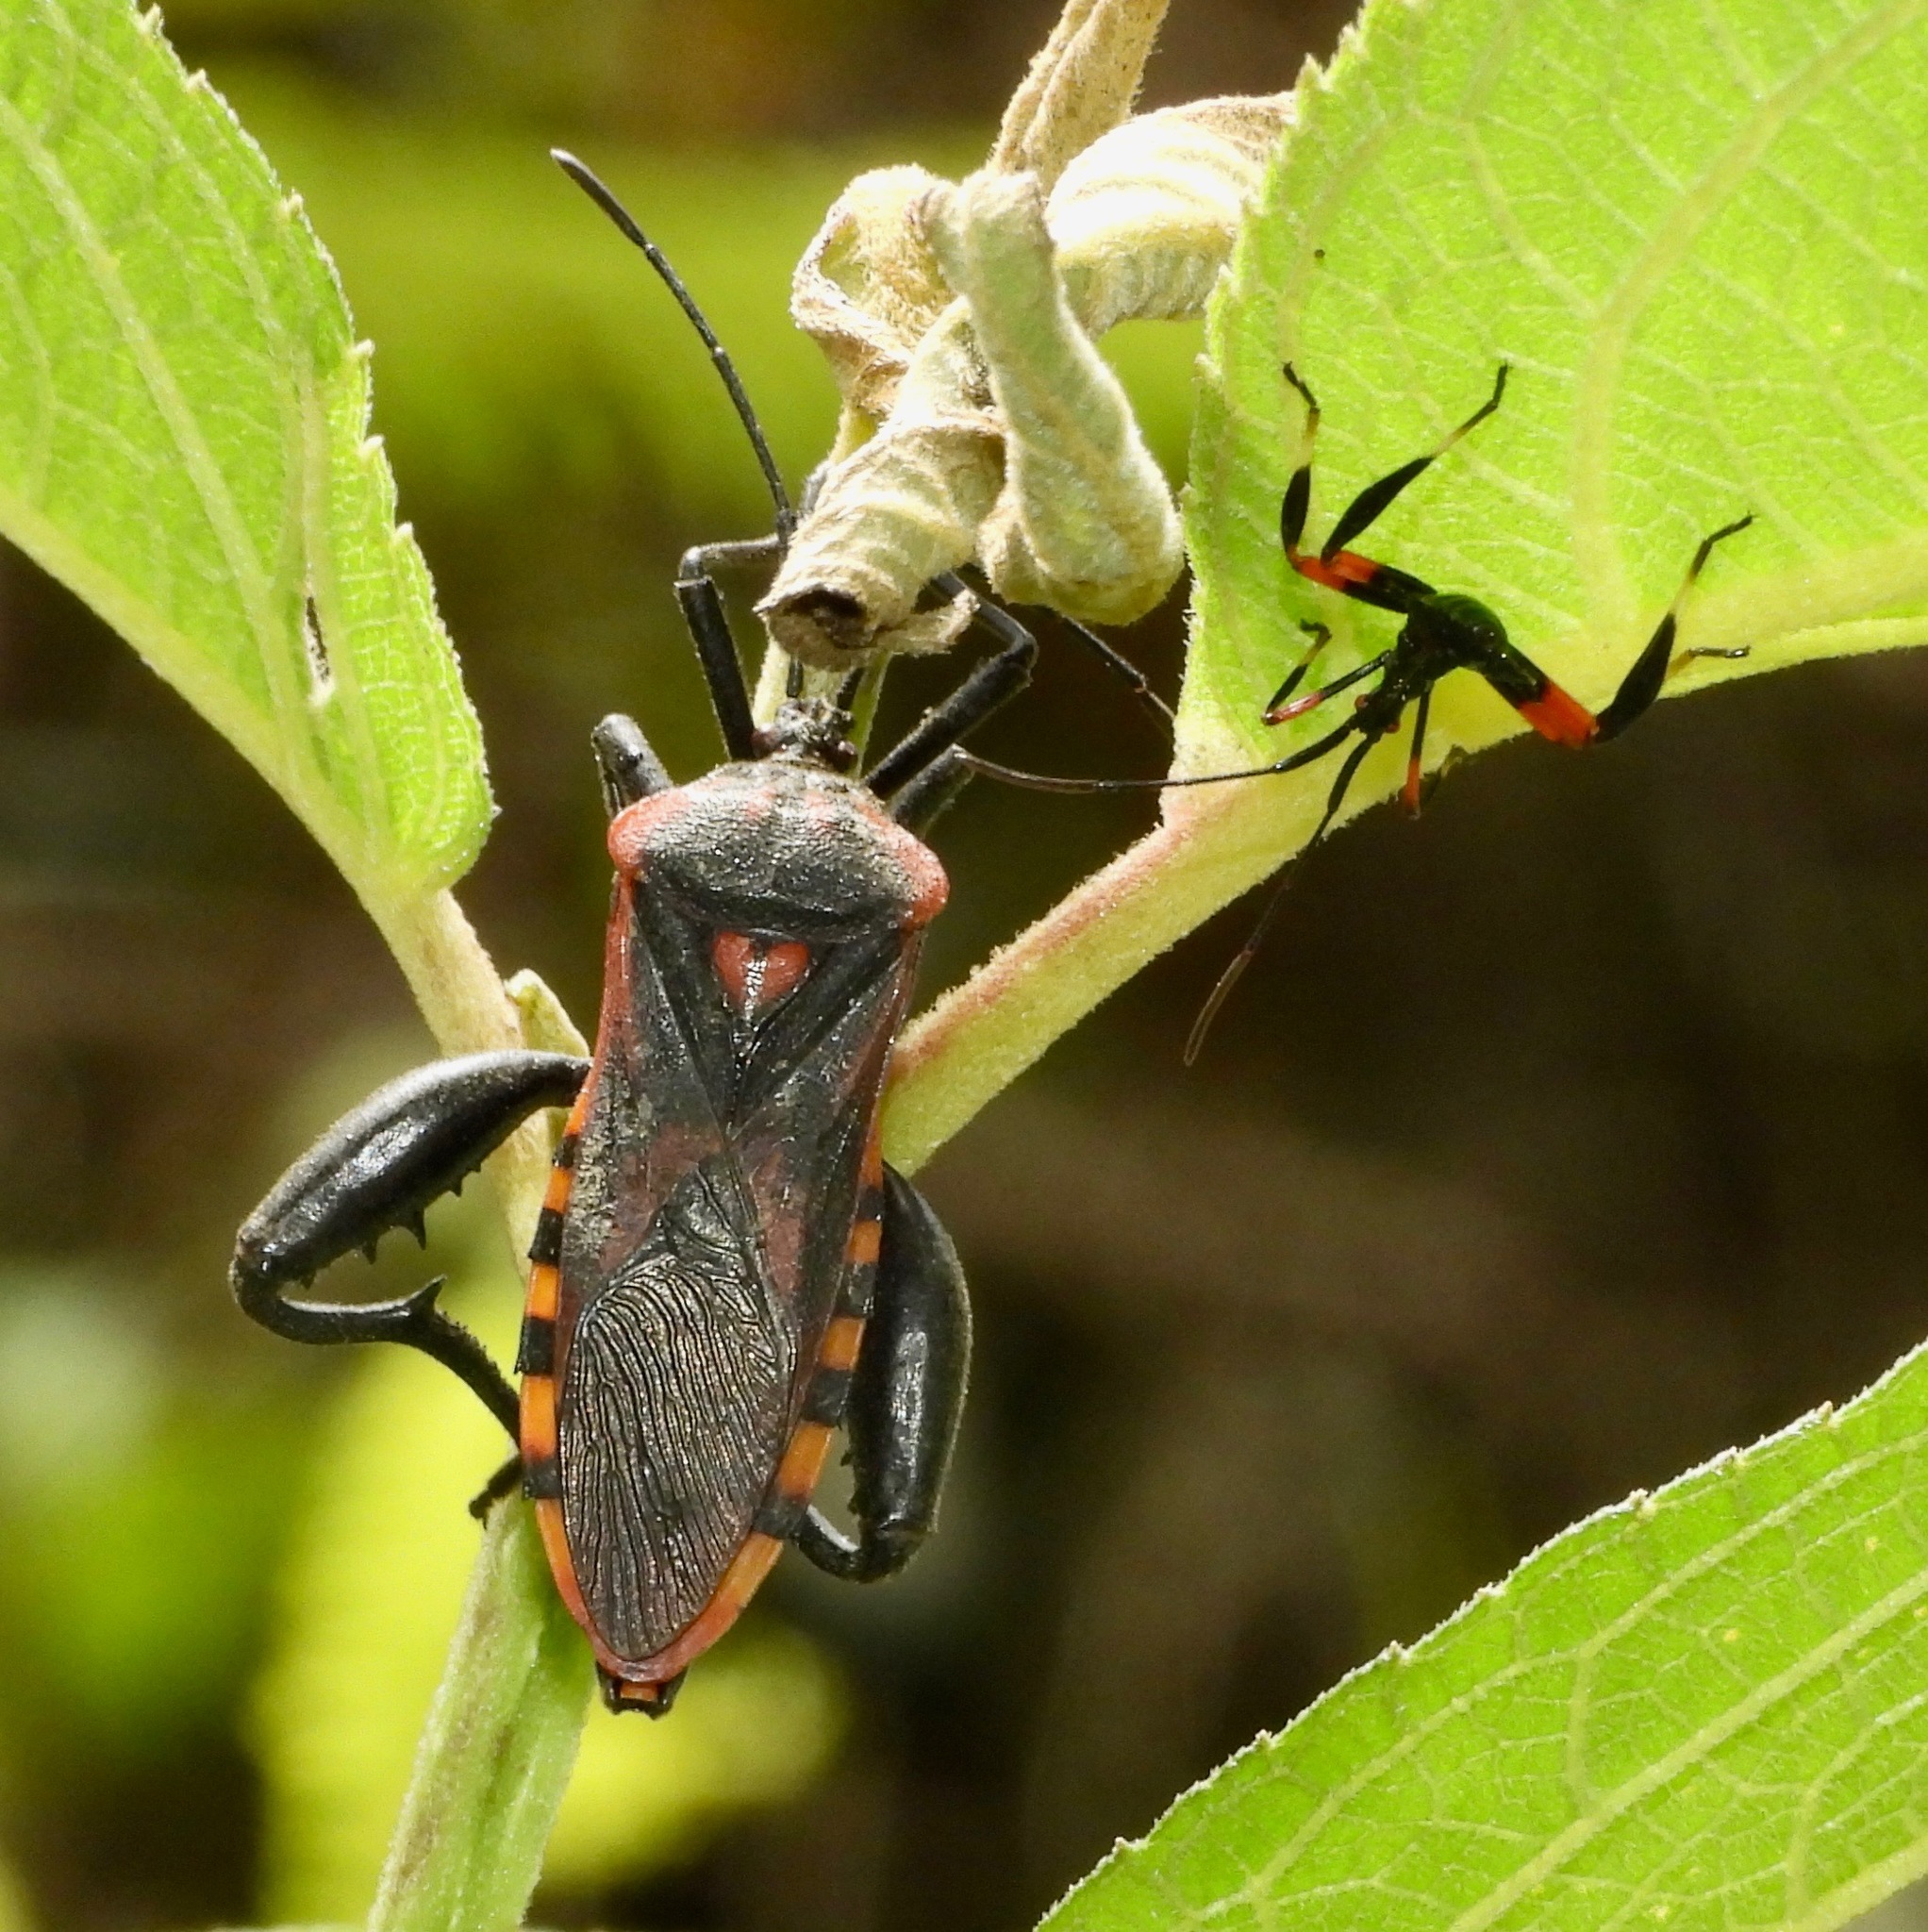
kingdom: Animalia
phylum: Arthropoda
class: Insecta
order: Hemiptera
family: Coreidae
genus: Piezogaster
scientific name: Piezogaster rubropictus
